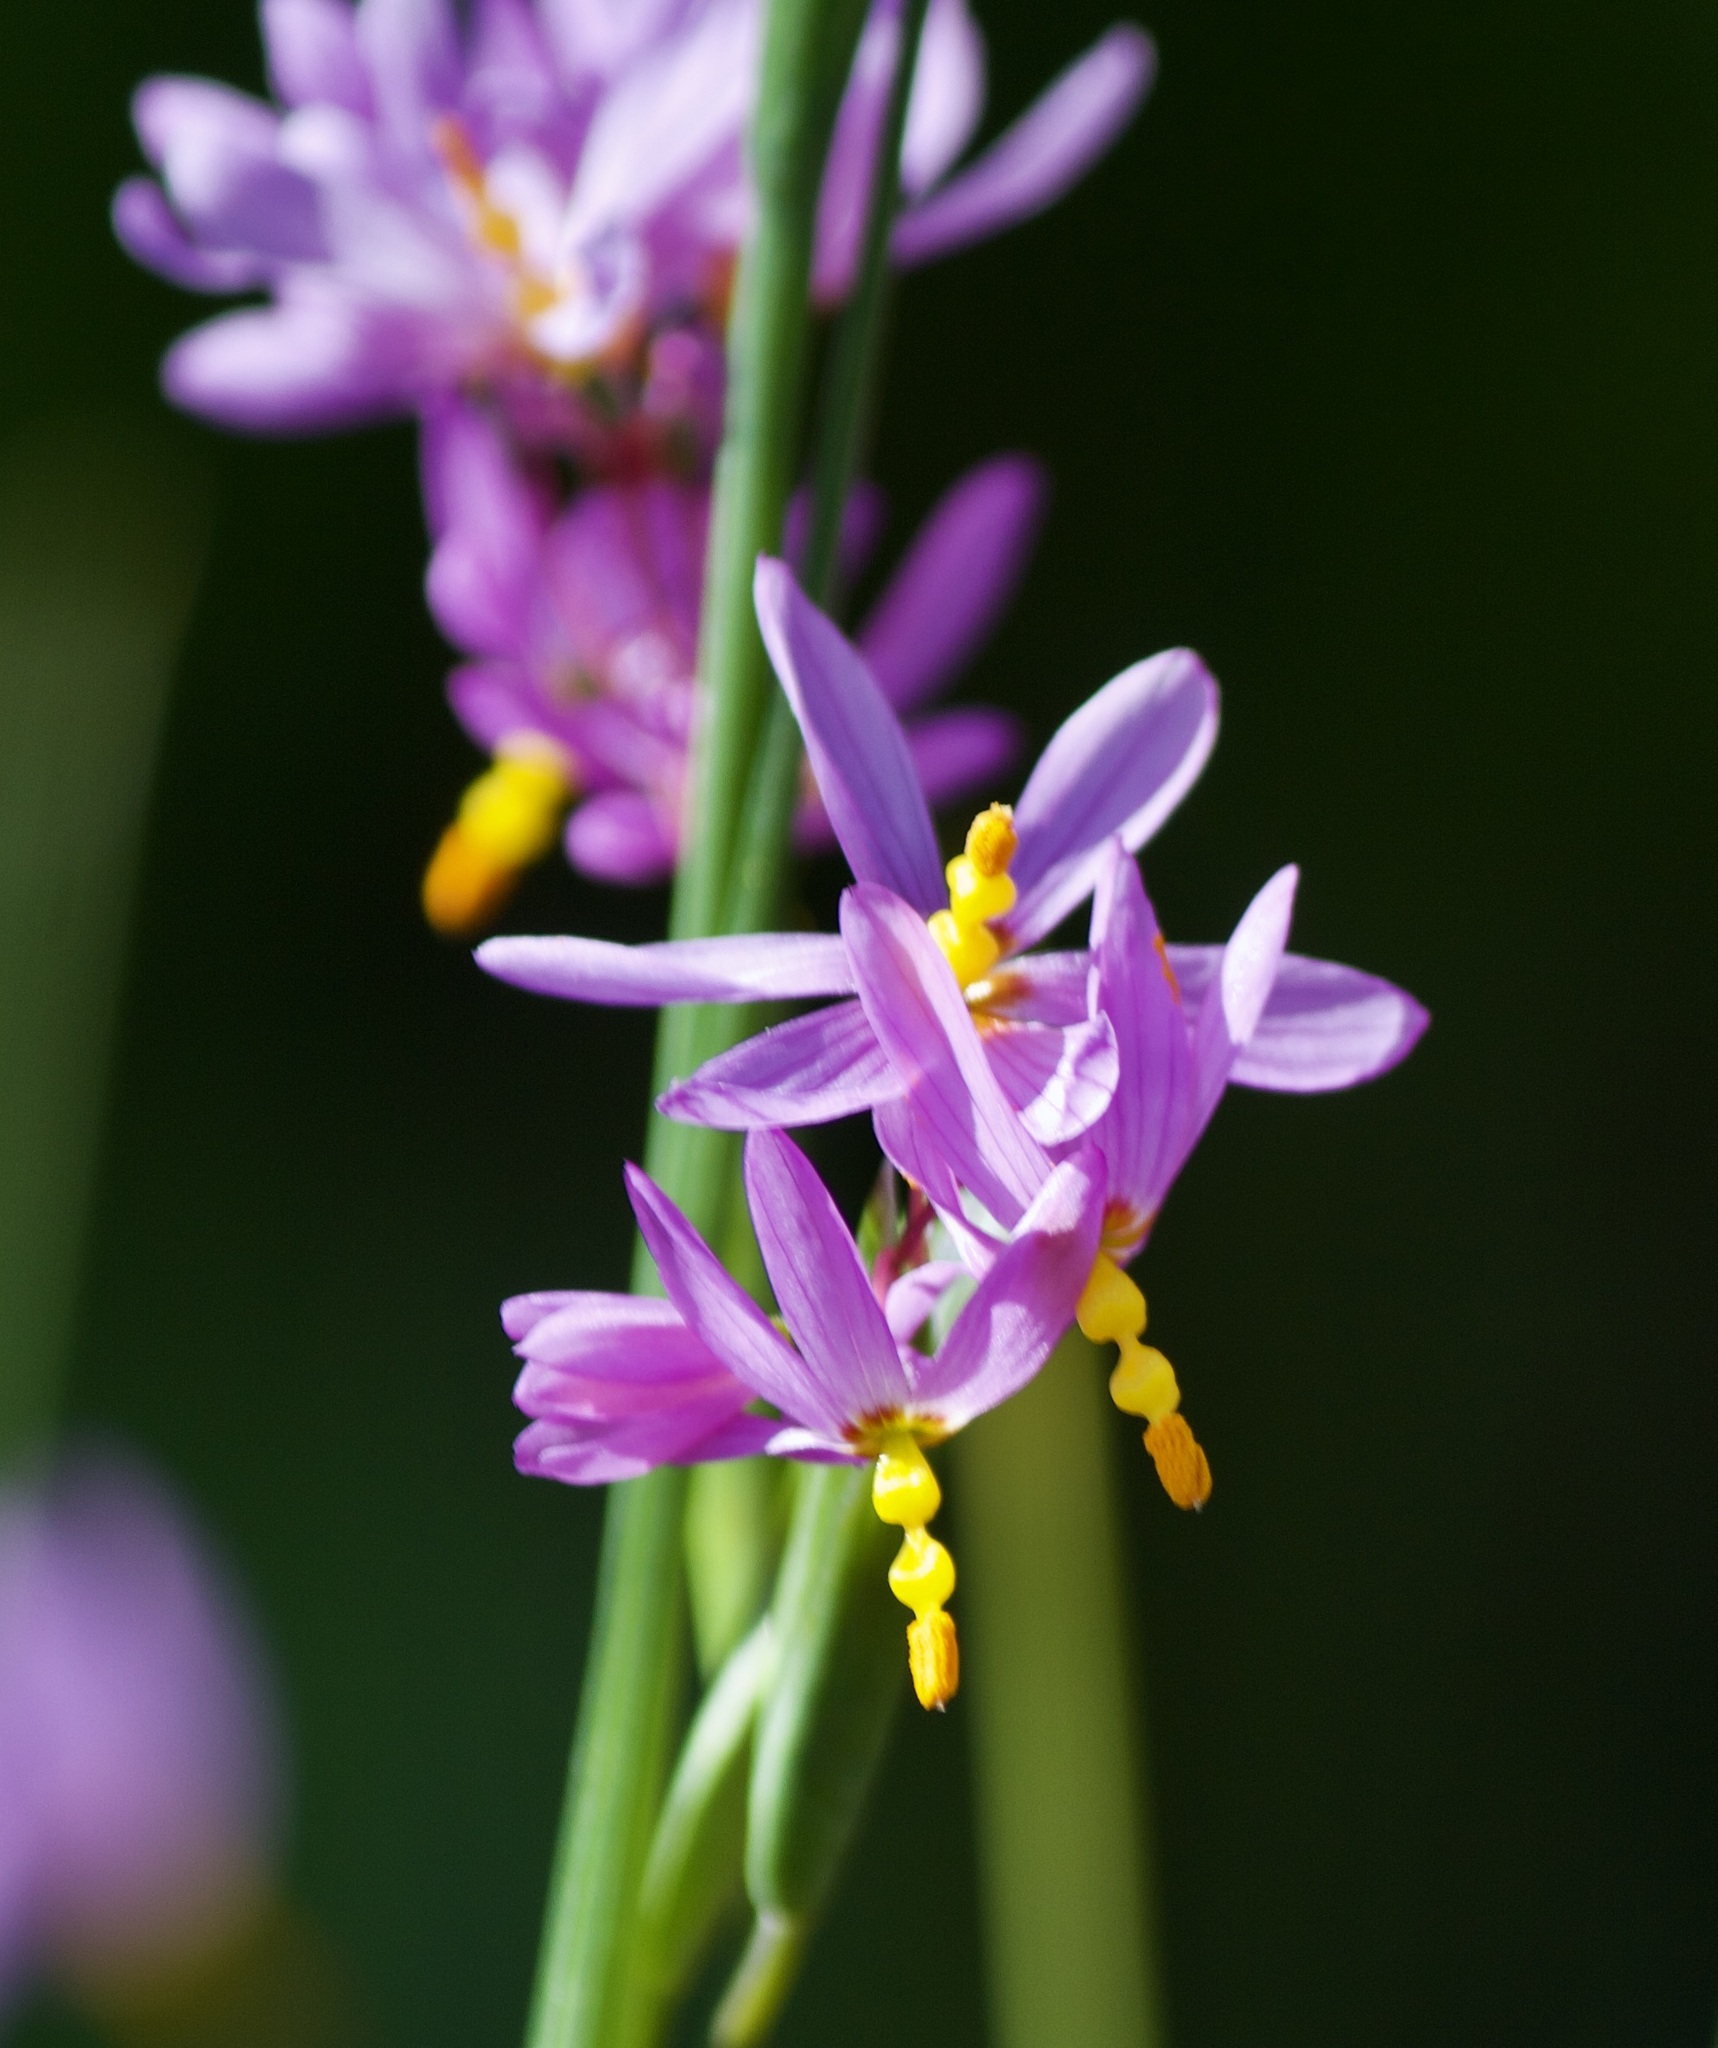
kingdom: Plantae
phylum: Tracheophyta
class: Liliopsida
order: Asparagales
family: Iridaceae
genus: Olsynium
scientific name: Olsynium scirpoideum
